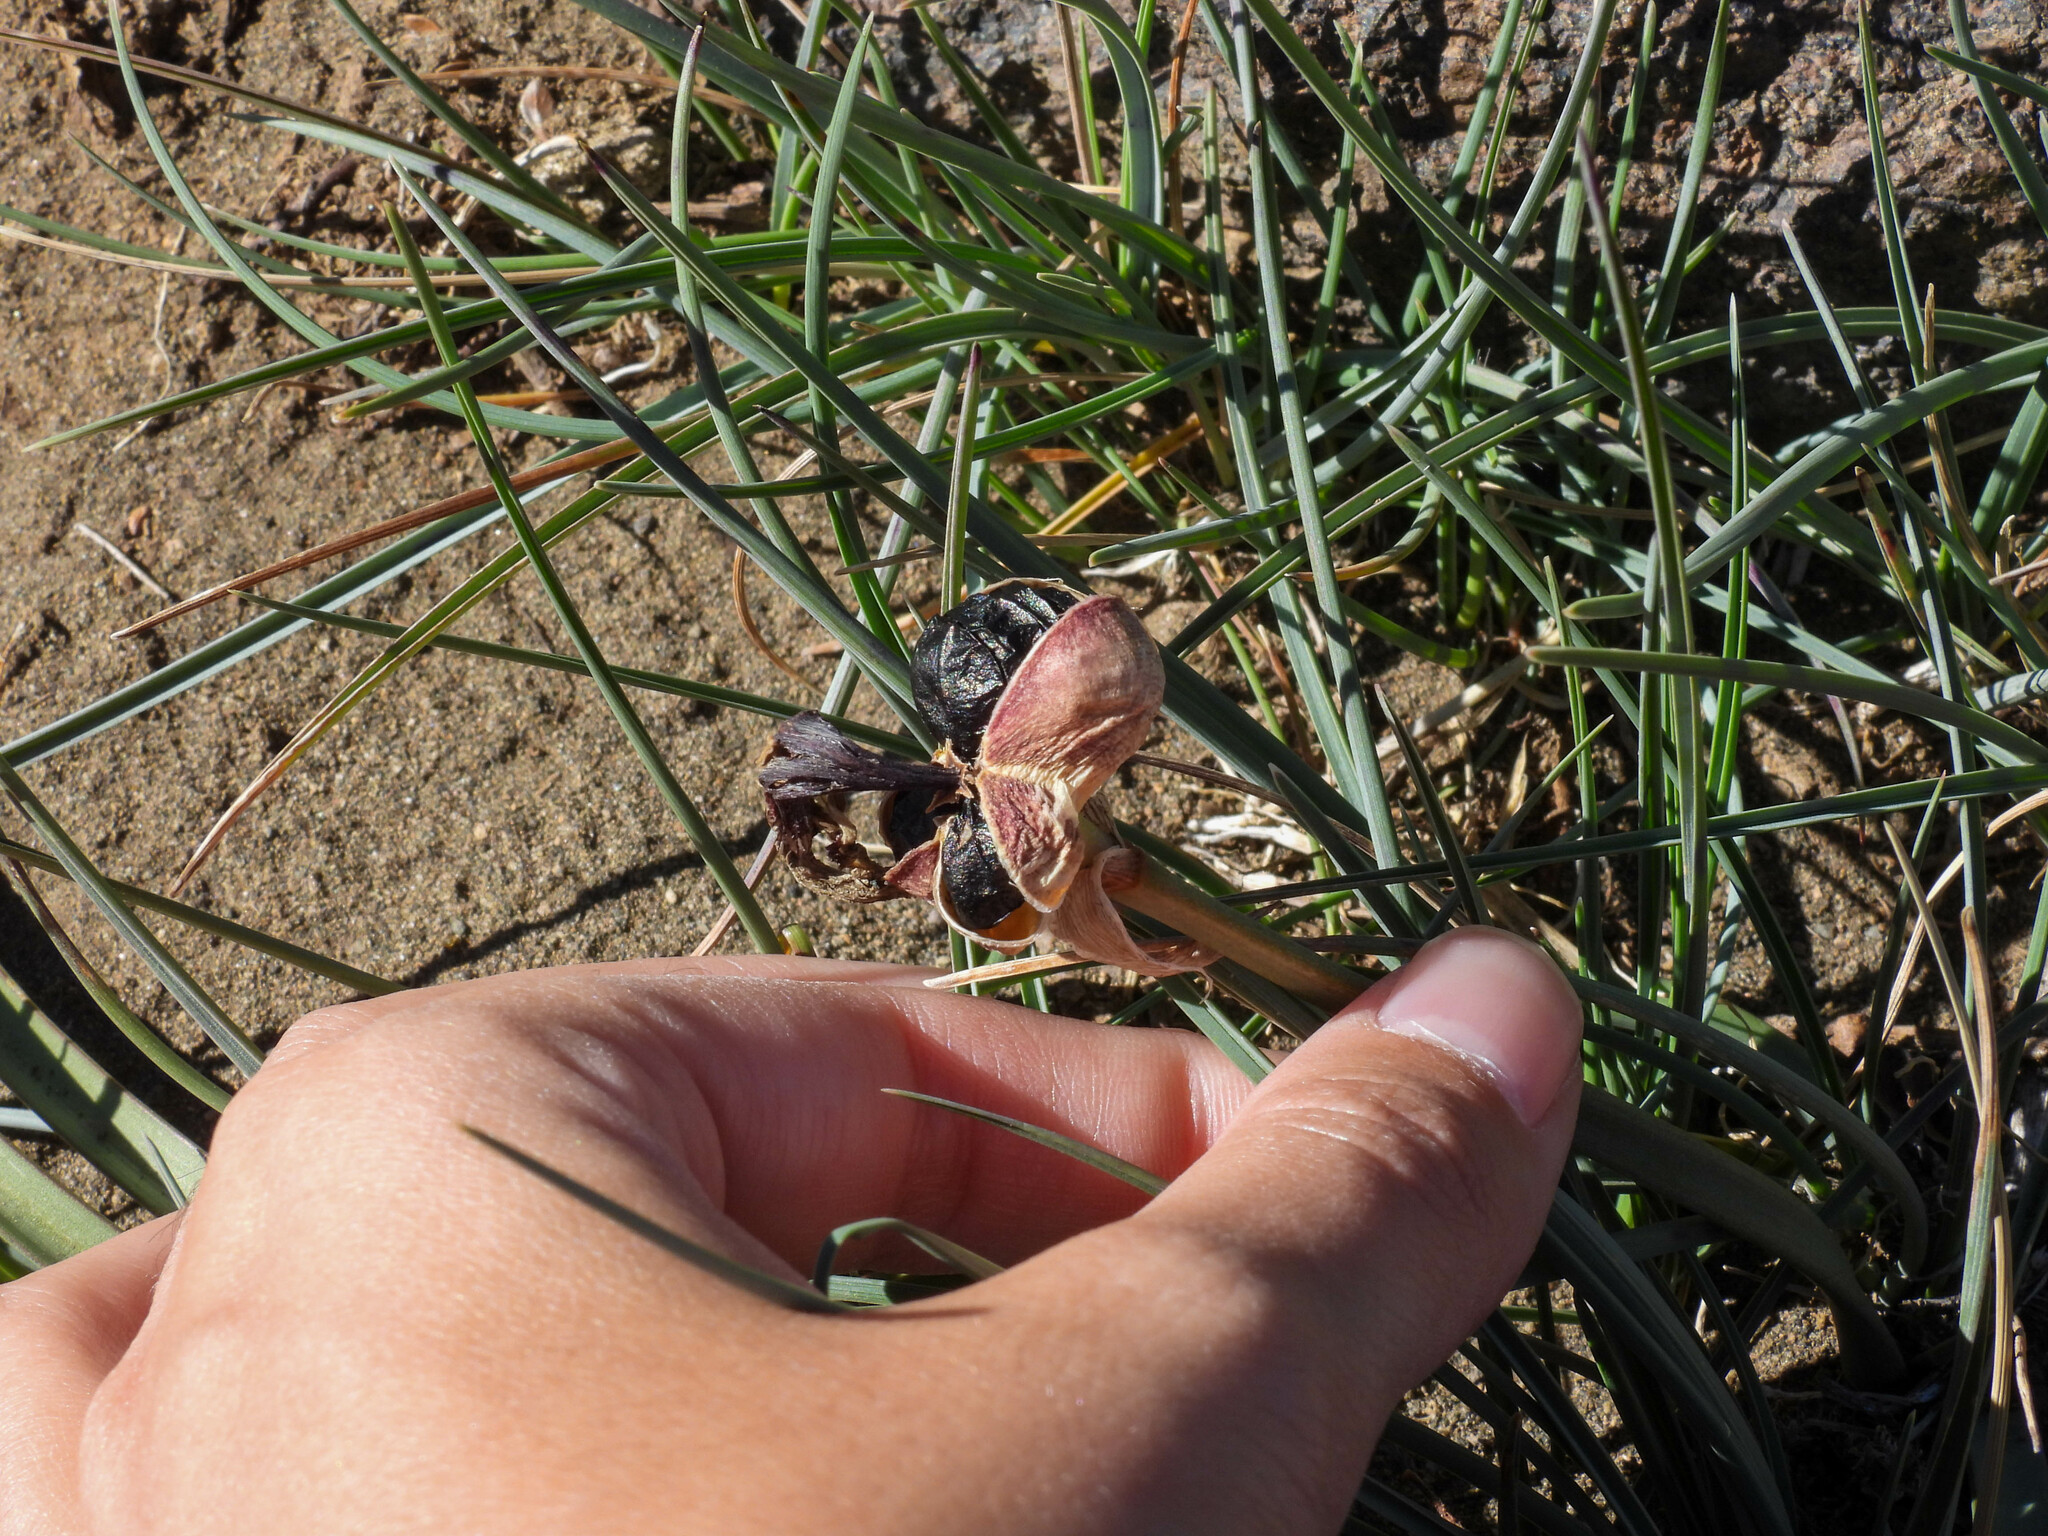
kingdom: Plantae
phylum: Tracheophyta
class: Liliopsida
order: Asparagales
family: Amaryllidaceae
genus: Zephyranthes
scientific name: Zephyranthes gilliesiana
